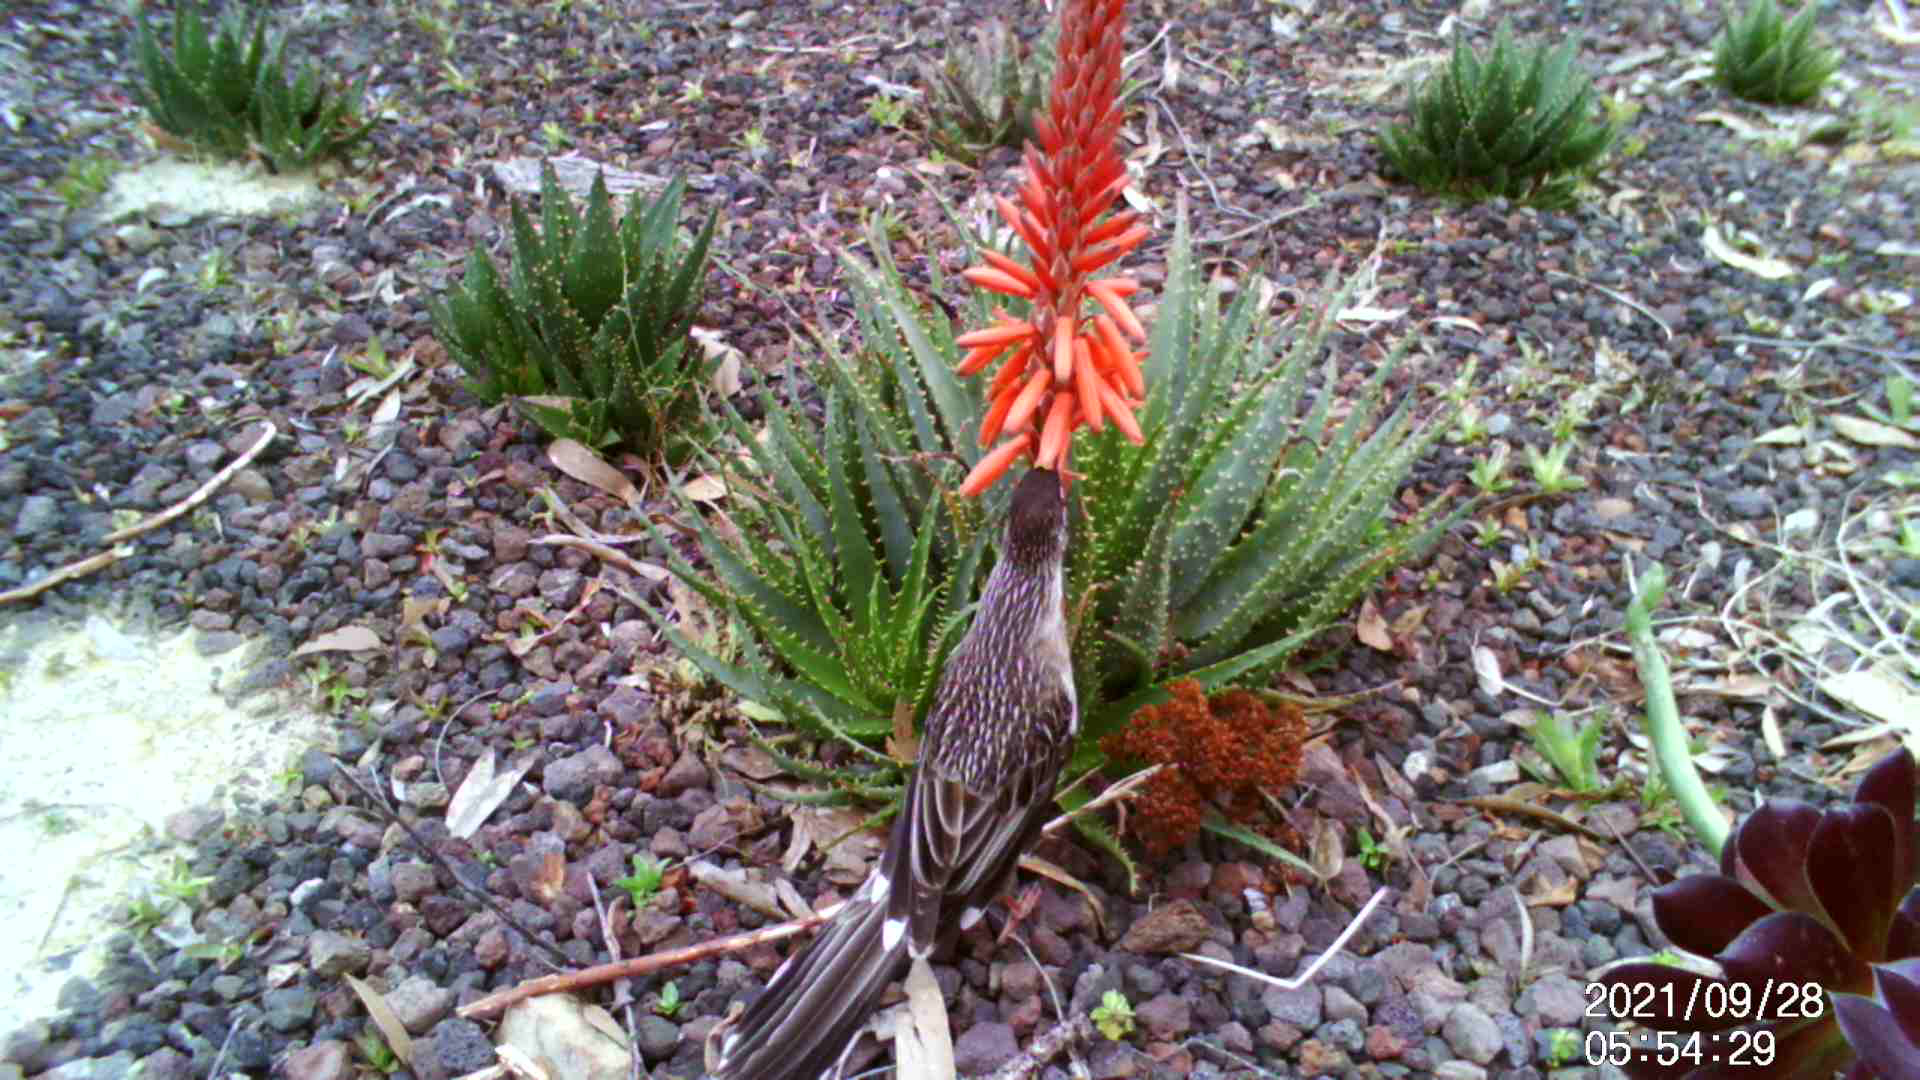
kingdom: Animalia
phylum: Chordata
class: Aves
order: Passeriformes
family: Meliphagidae
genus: Anthochaera
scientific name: Anthochaera carunculata
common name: Red wattlebird
